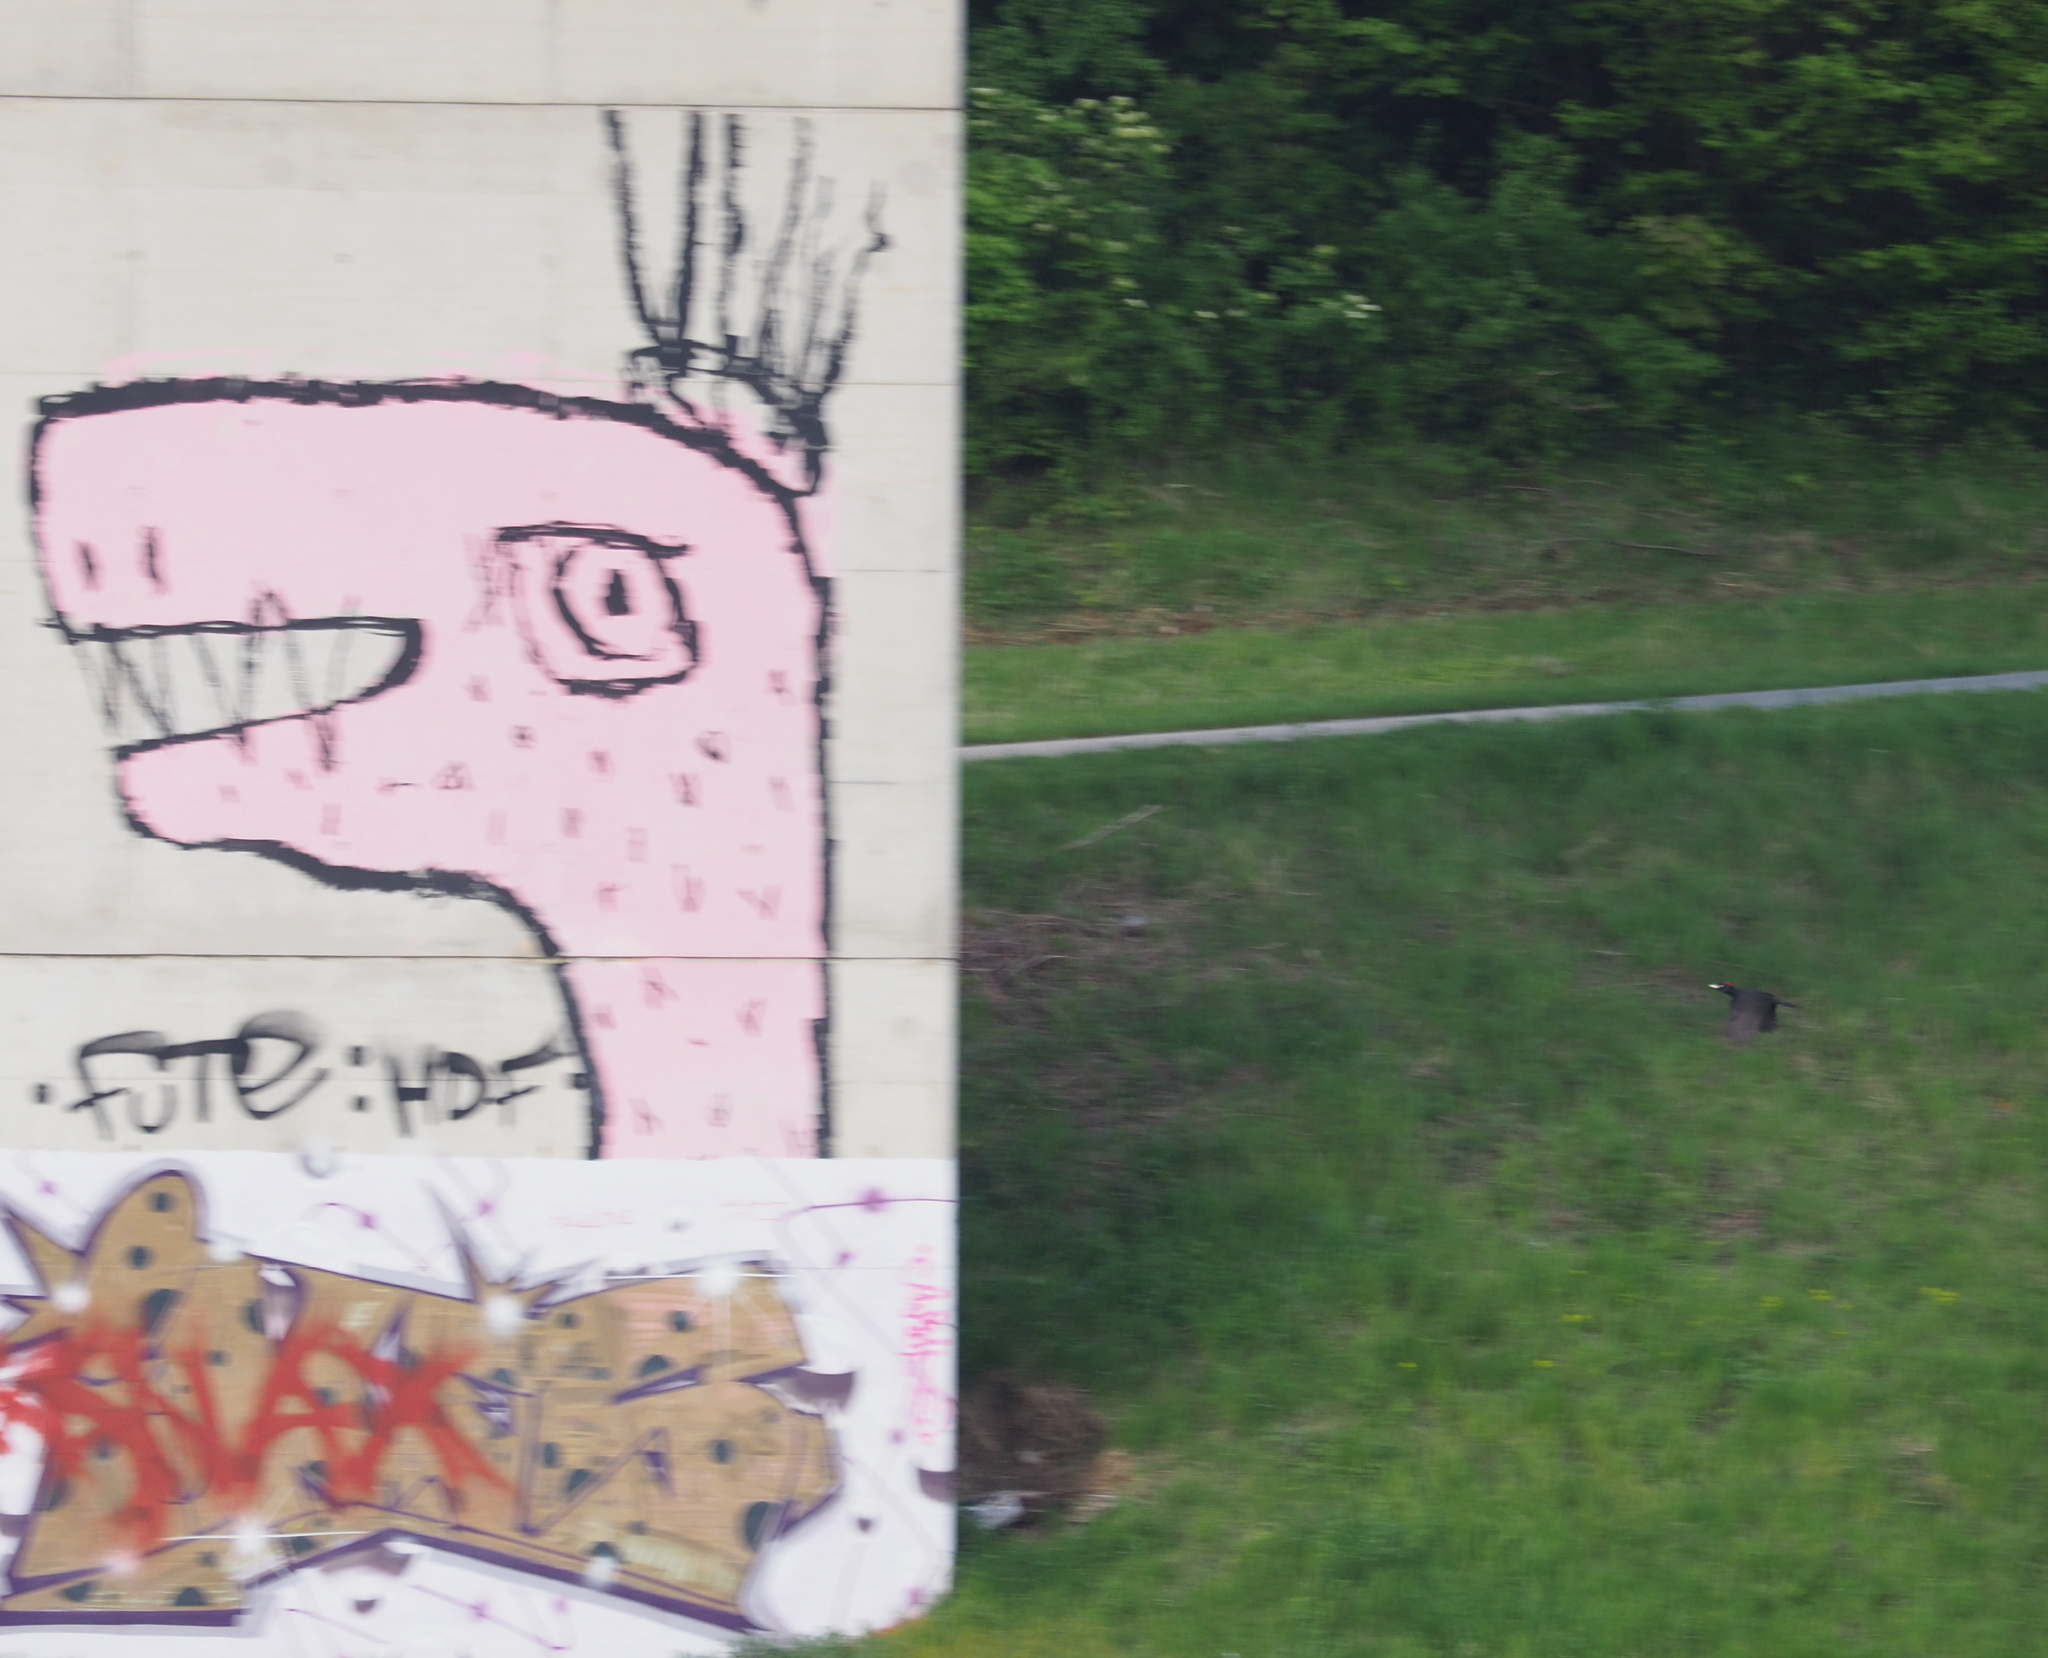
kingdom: Animalia
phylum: Chordata
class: Aves
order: Piciformes
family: Picidae
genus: Dryocopus
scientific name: Dryocopus martius
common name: Black woodpecker
